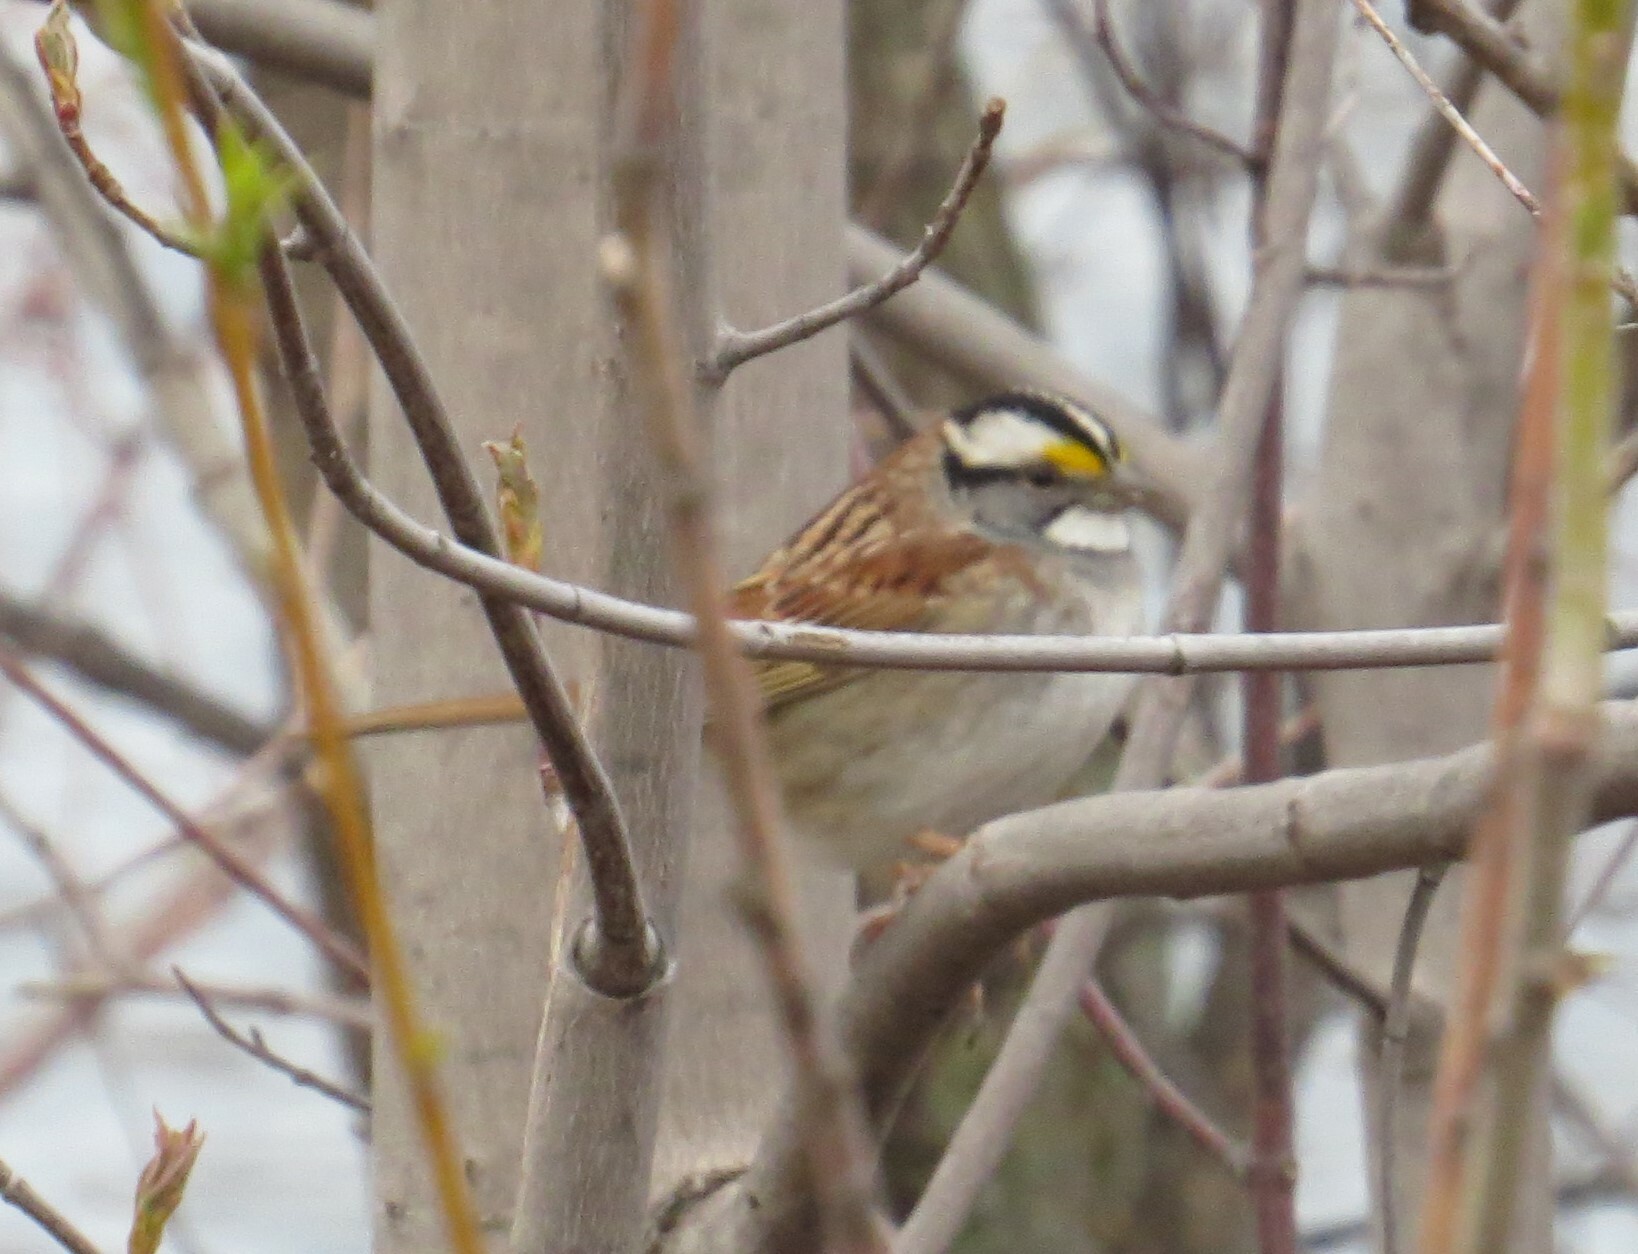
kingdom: Animalia
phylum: Chordata
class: Aves
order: Passeriformes
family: Passerellidae
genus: Zonotrichia
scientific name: Zonotrichia albicollis
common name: White-throated sparrow
